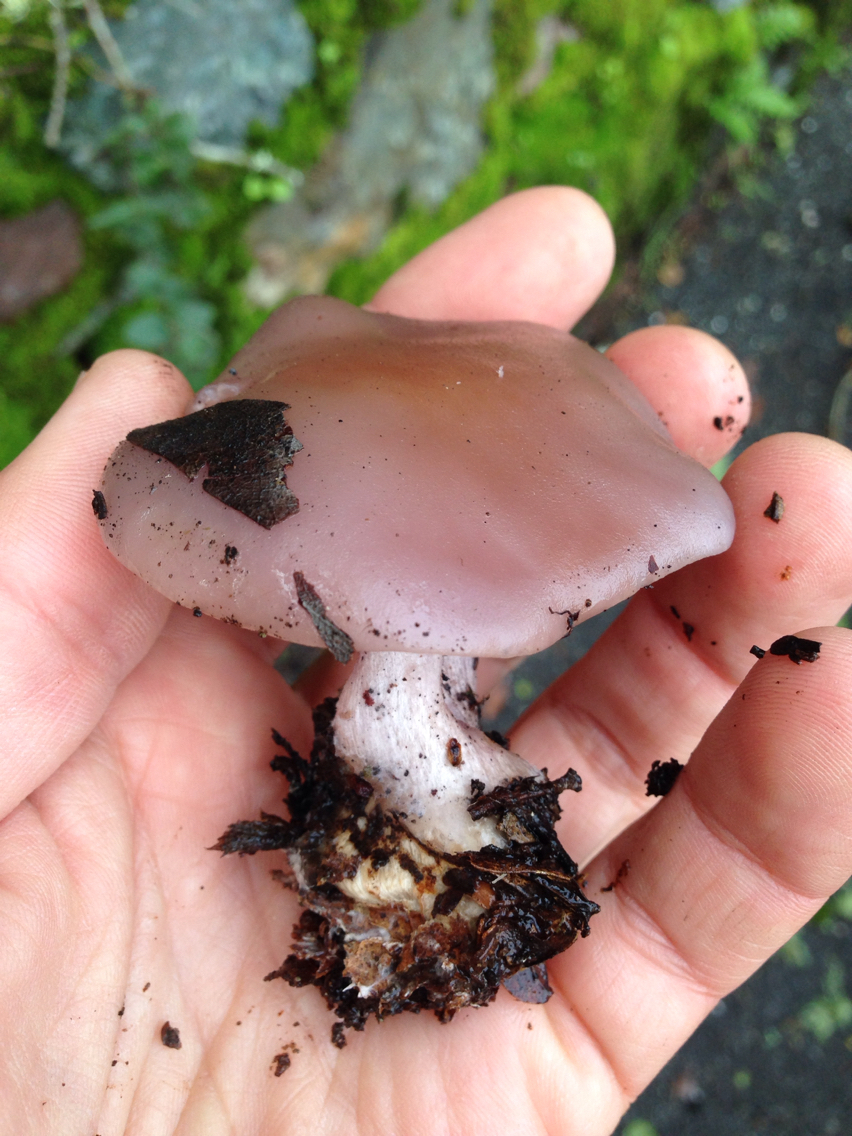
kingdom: Fungi
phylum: Basidiomycota
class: Agaricomycetes
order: Agaricales
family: Tricholomataceae
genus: Collybia
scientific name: Collybia
